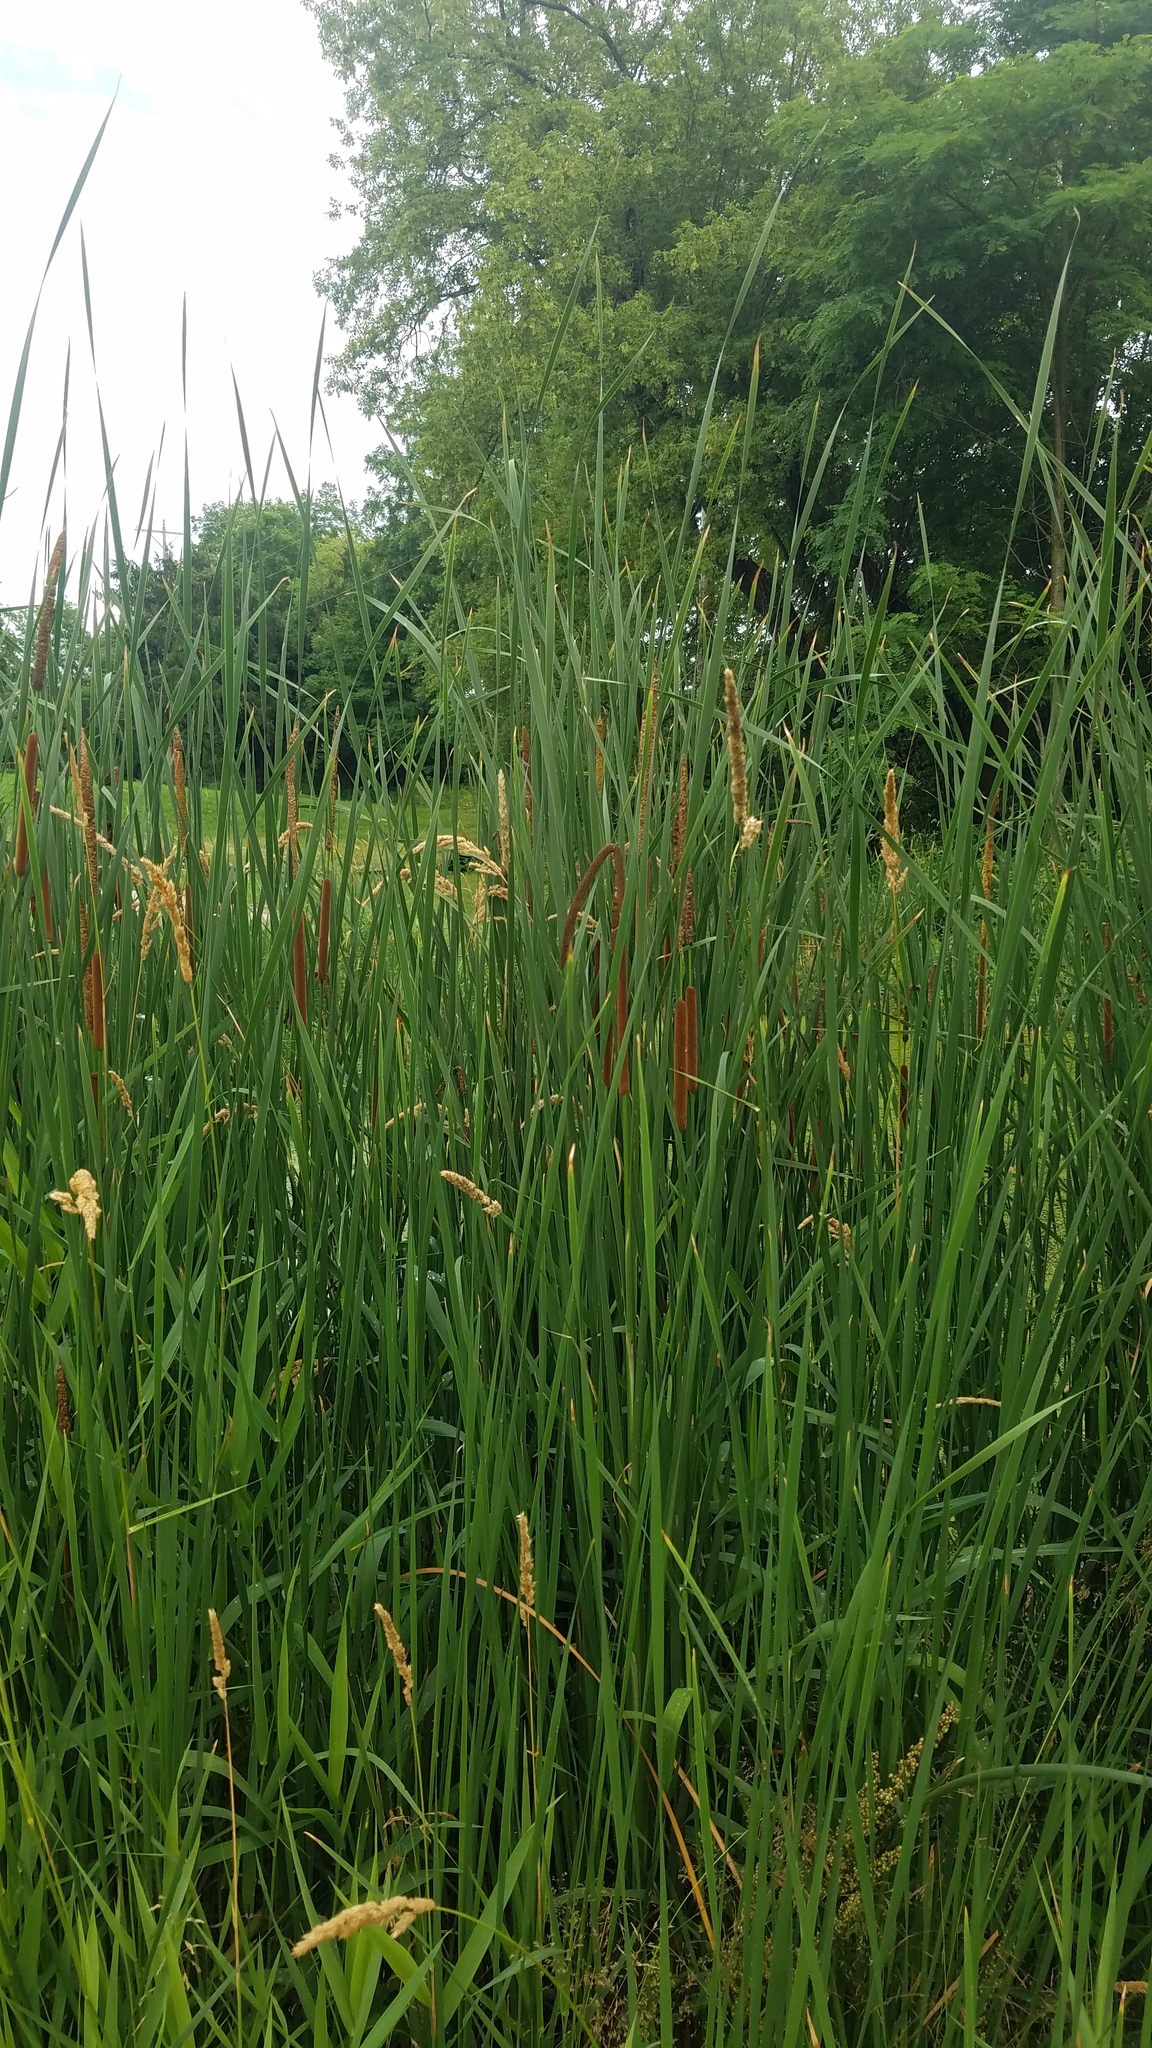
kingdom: Plantae
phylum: Tracheophyta
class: Liliopsida
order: Poales
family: Typhaceae
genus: Typha
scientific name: Typha angustifolia
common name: Lesser bulrush
